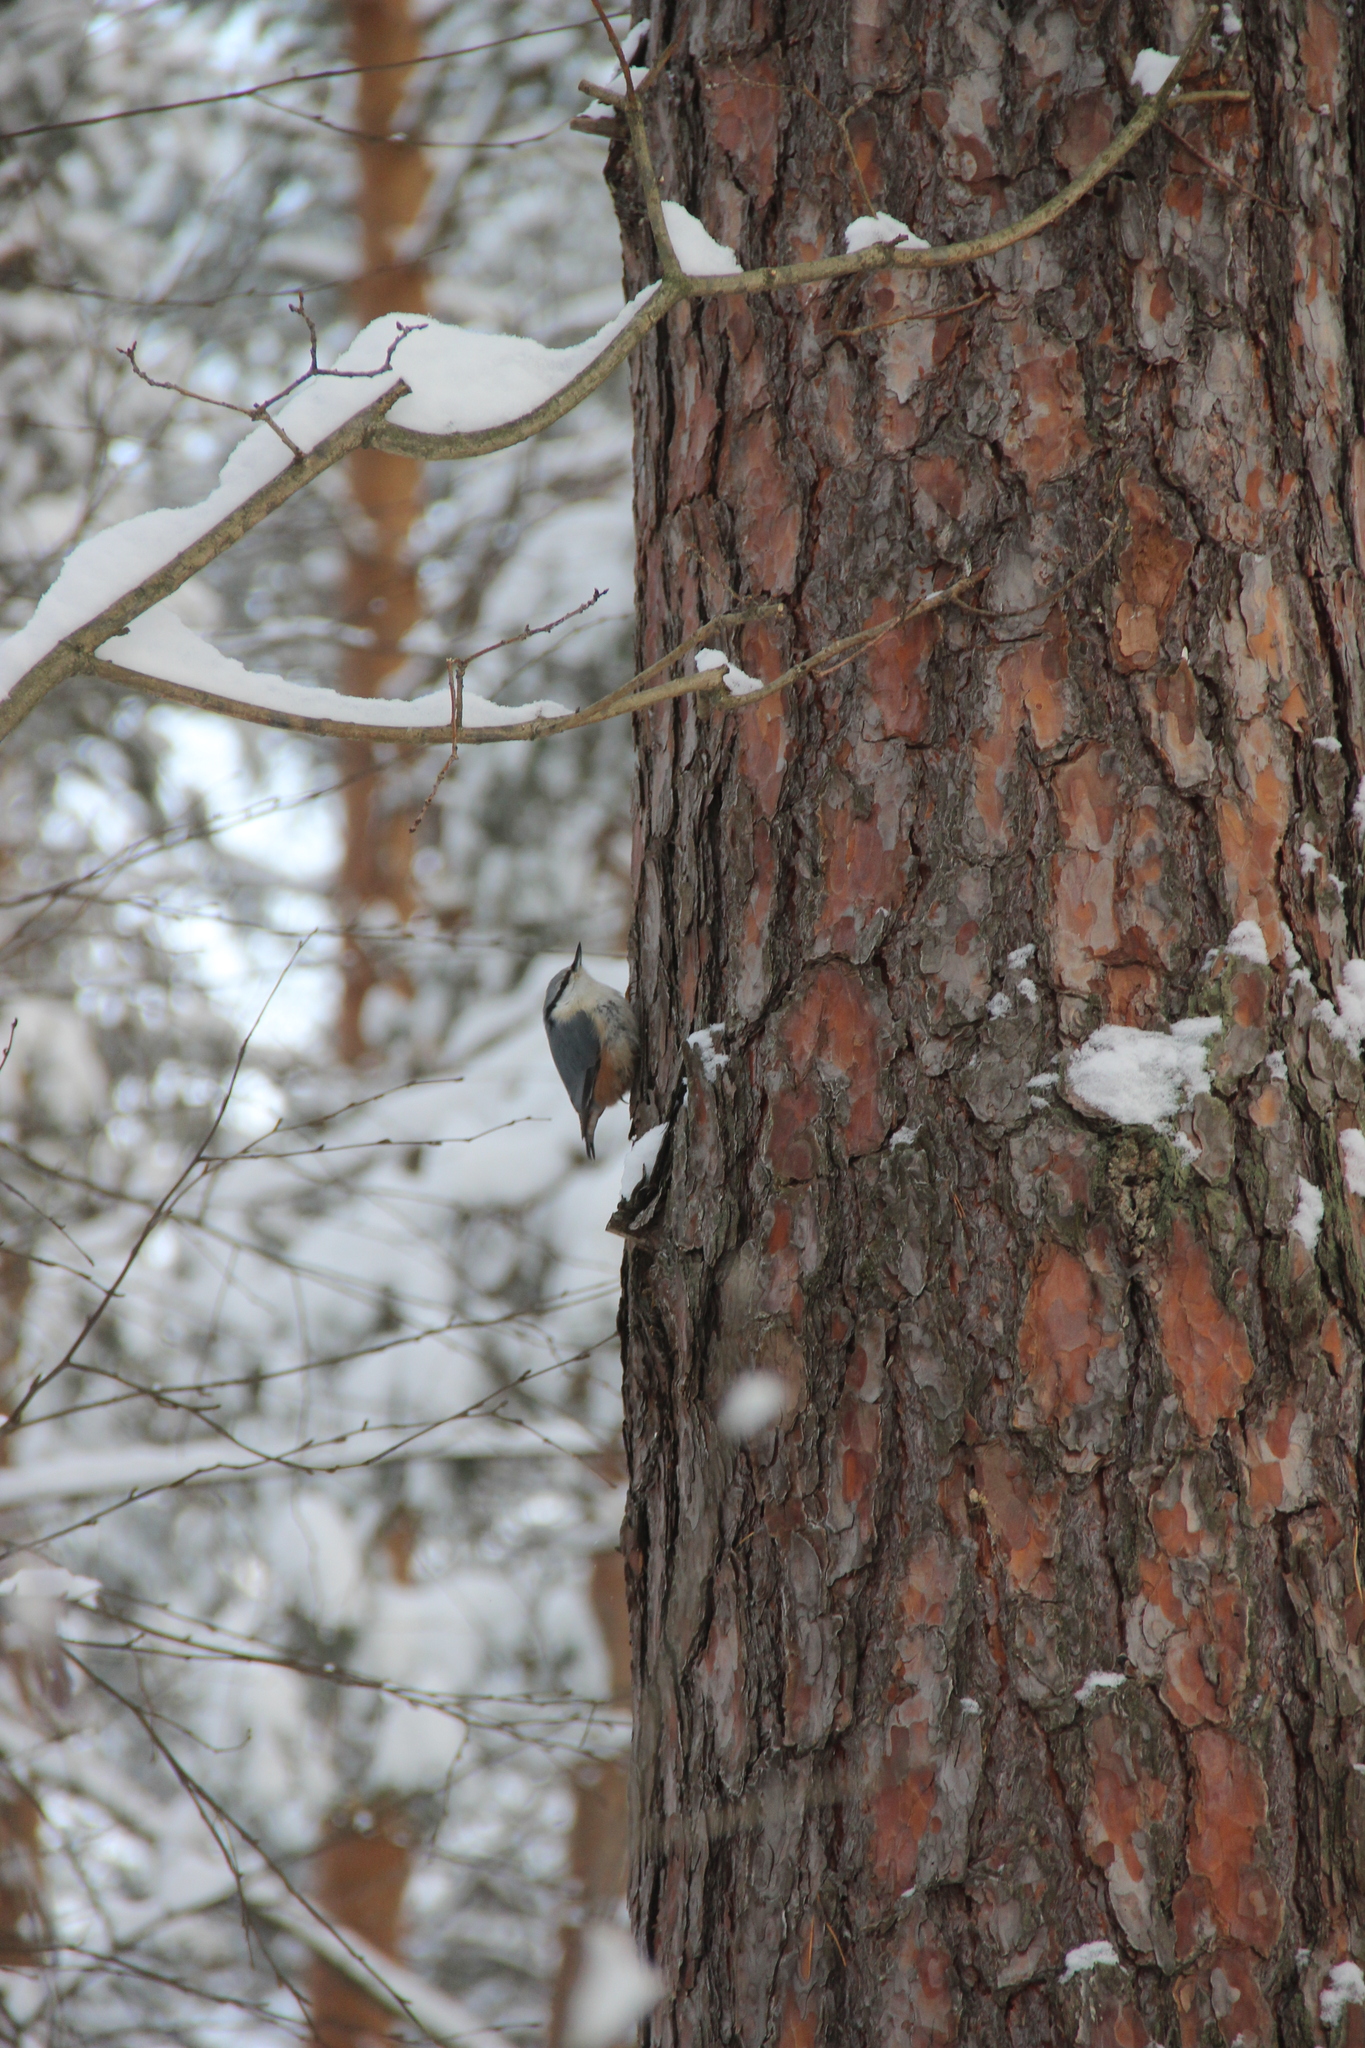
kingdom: Animalia
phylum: Chordata
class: Aves
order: Passeriformes
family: Sittidae
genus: Sitta
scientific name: Sitta europaea
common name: Eurasian nuthatch
